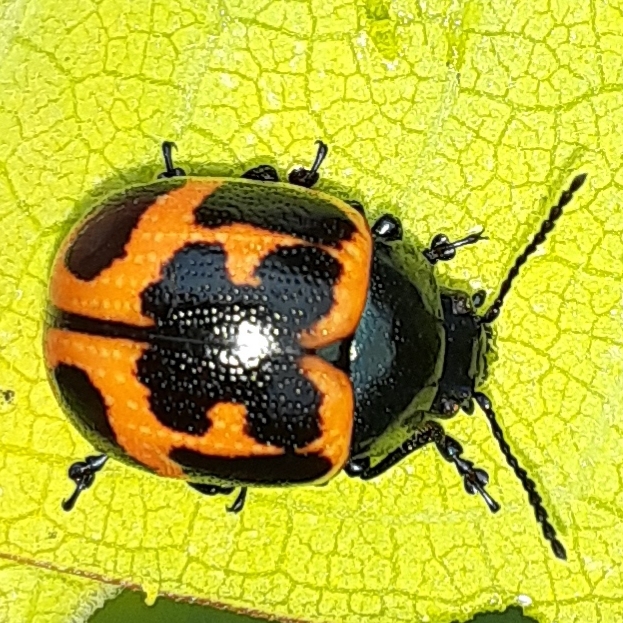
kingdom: Animalia
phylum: Arthropoda
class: Insecta
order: Coleoptera
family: Chrysomelidae
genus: Labidomera
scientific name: Labidomera clivicollis
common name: Swamp milkweed leaf beetle
